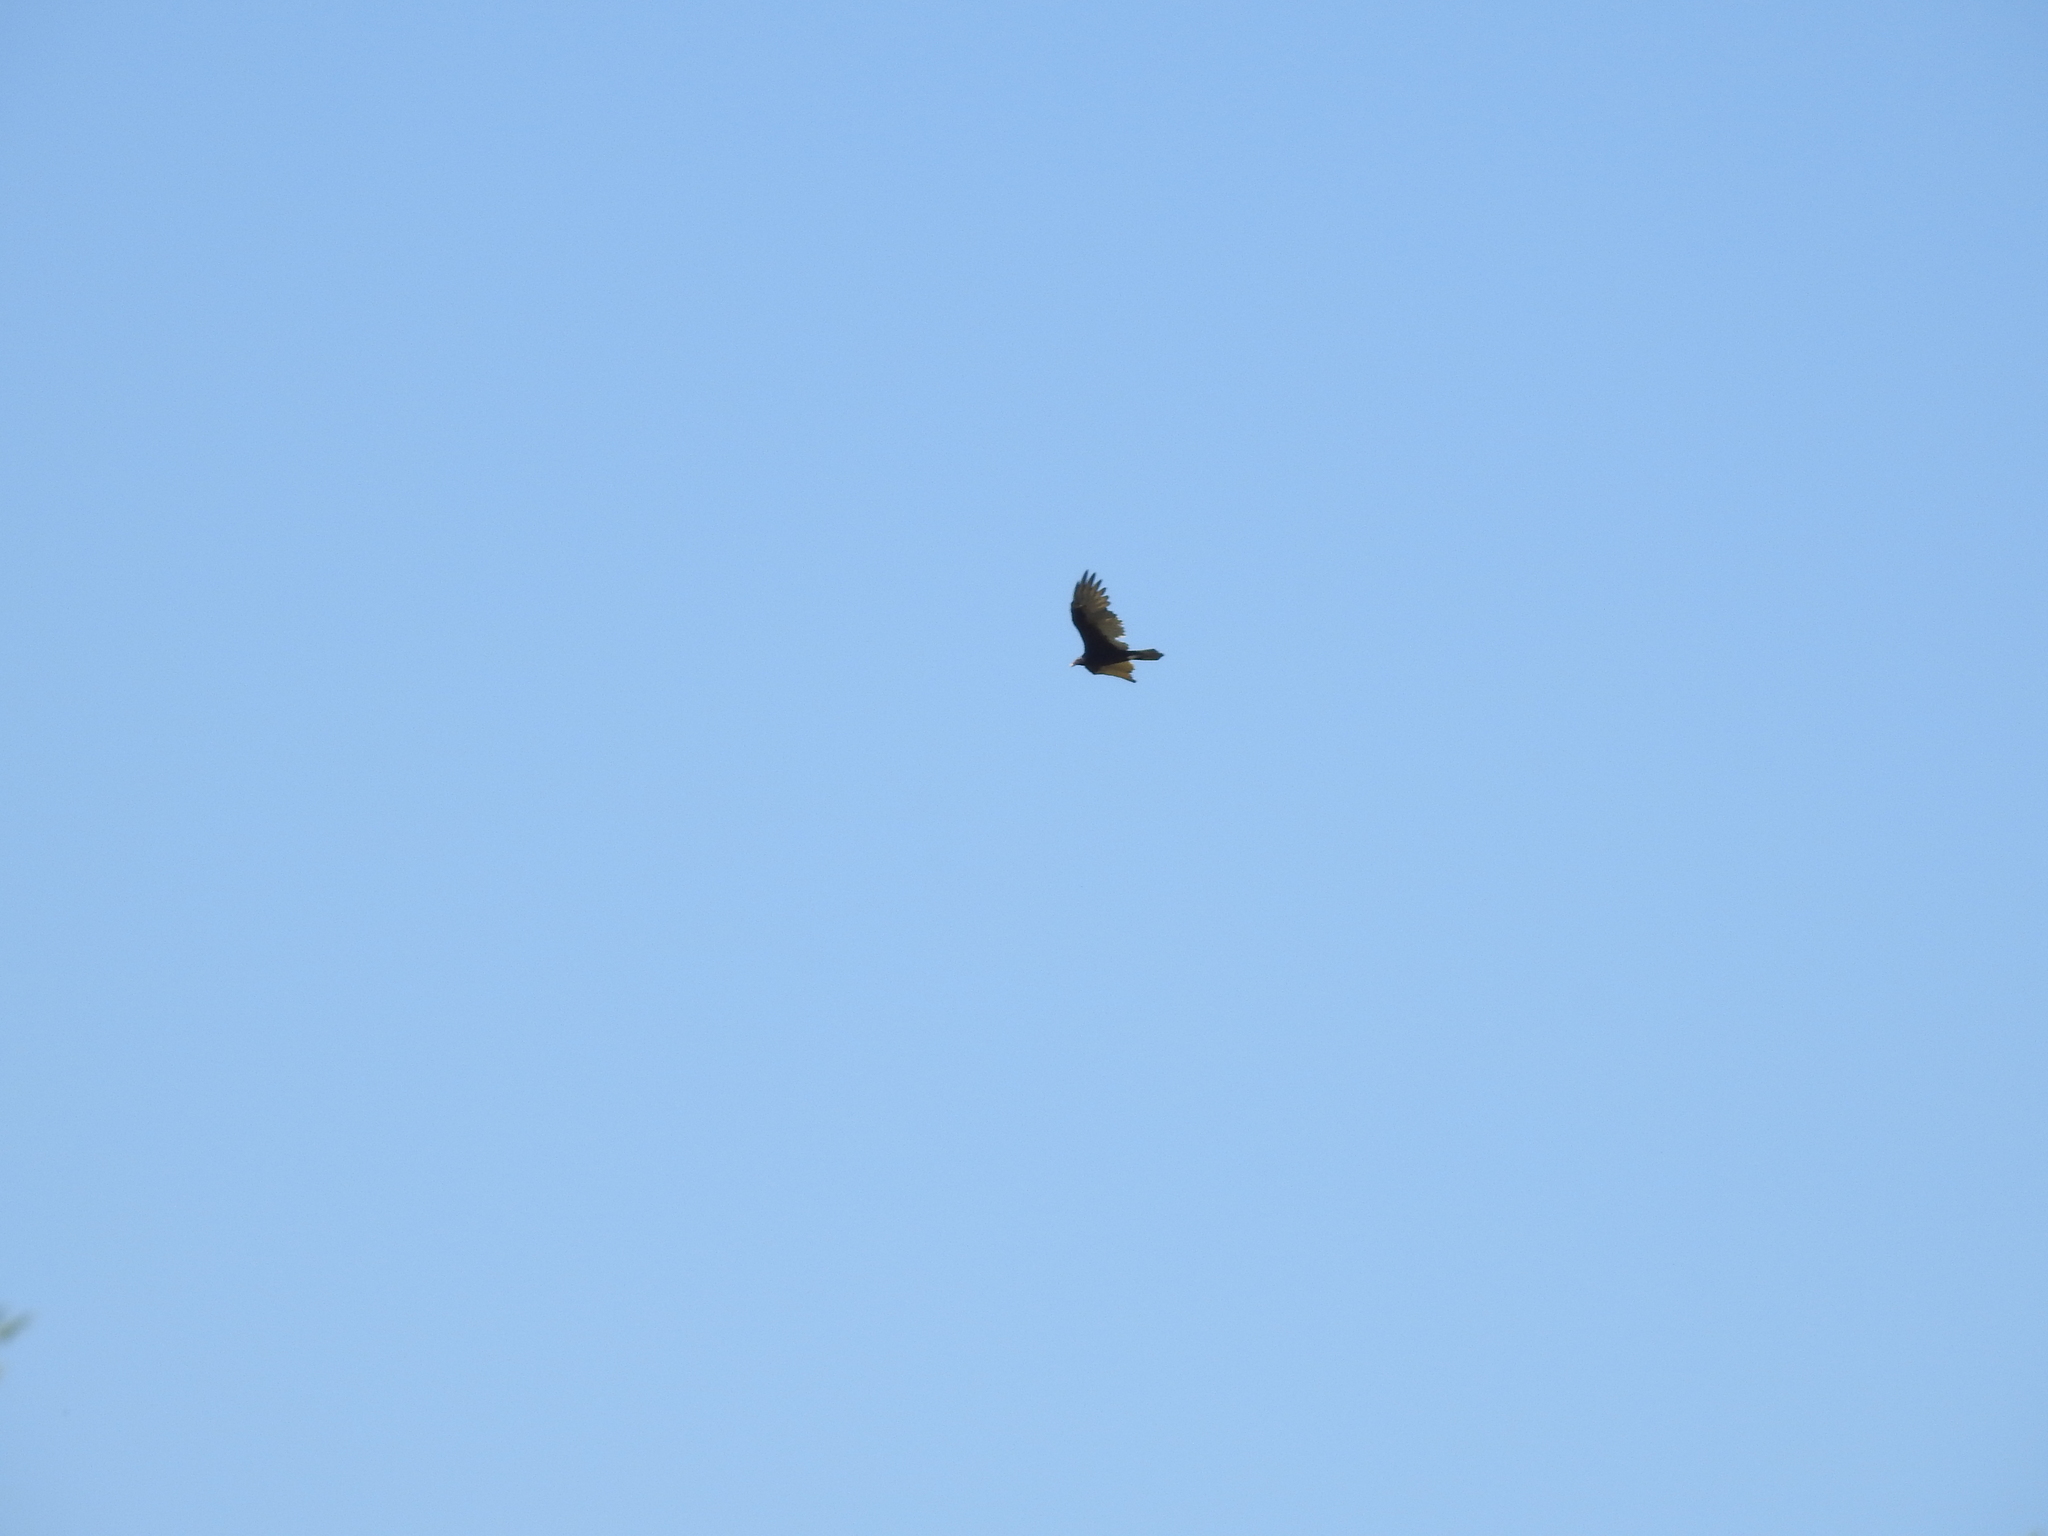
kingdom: Animalia
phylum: Chordata
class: Aves
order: Accipitriformes
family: Cathartidae
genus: Cathartes
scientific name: Cathartes aura
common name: Turkey vulture
